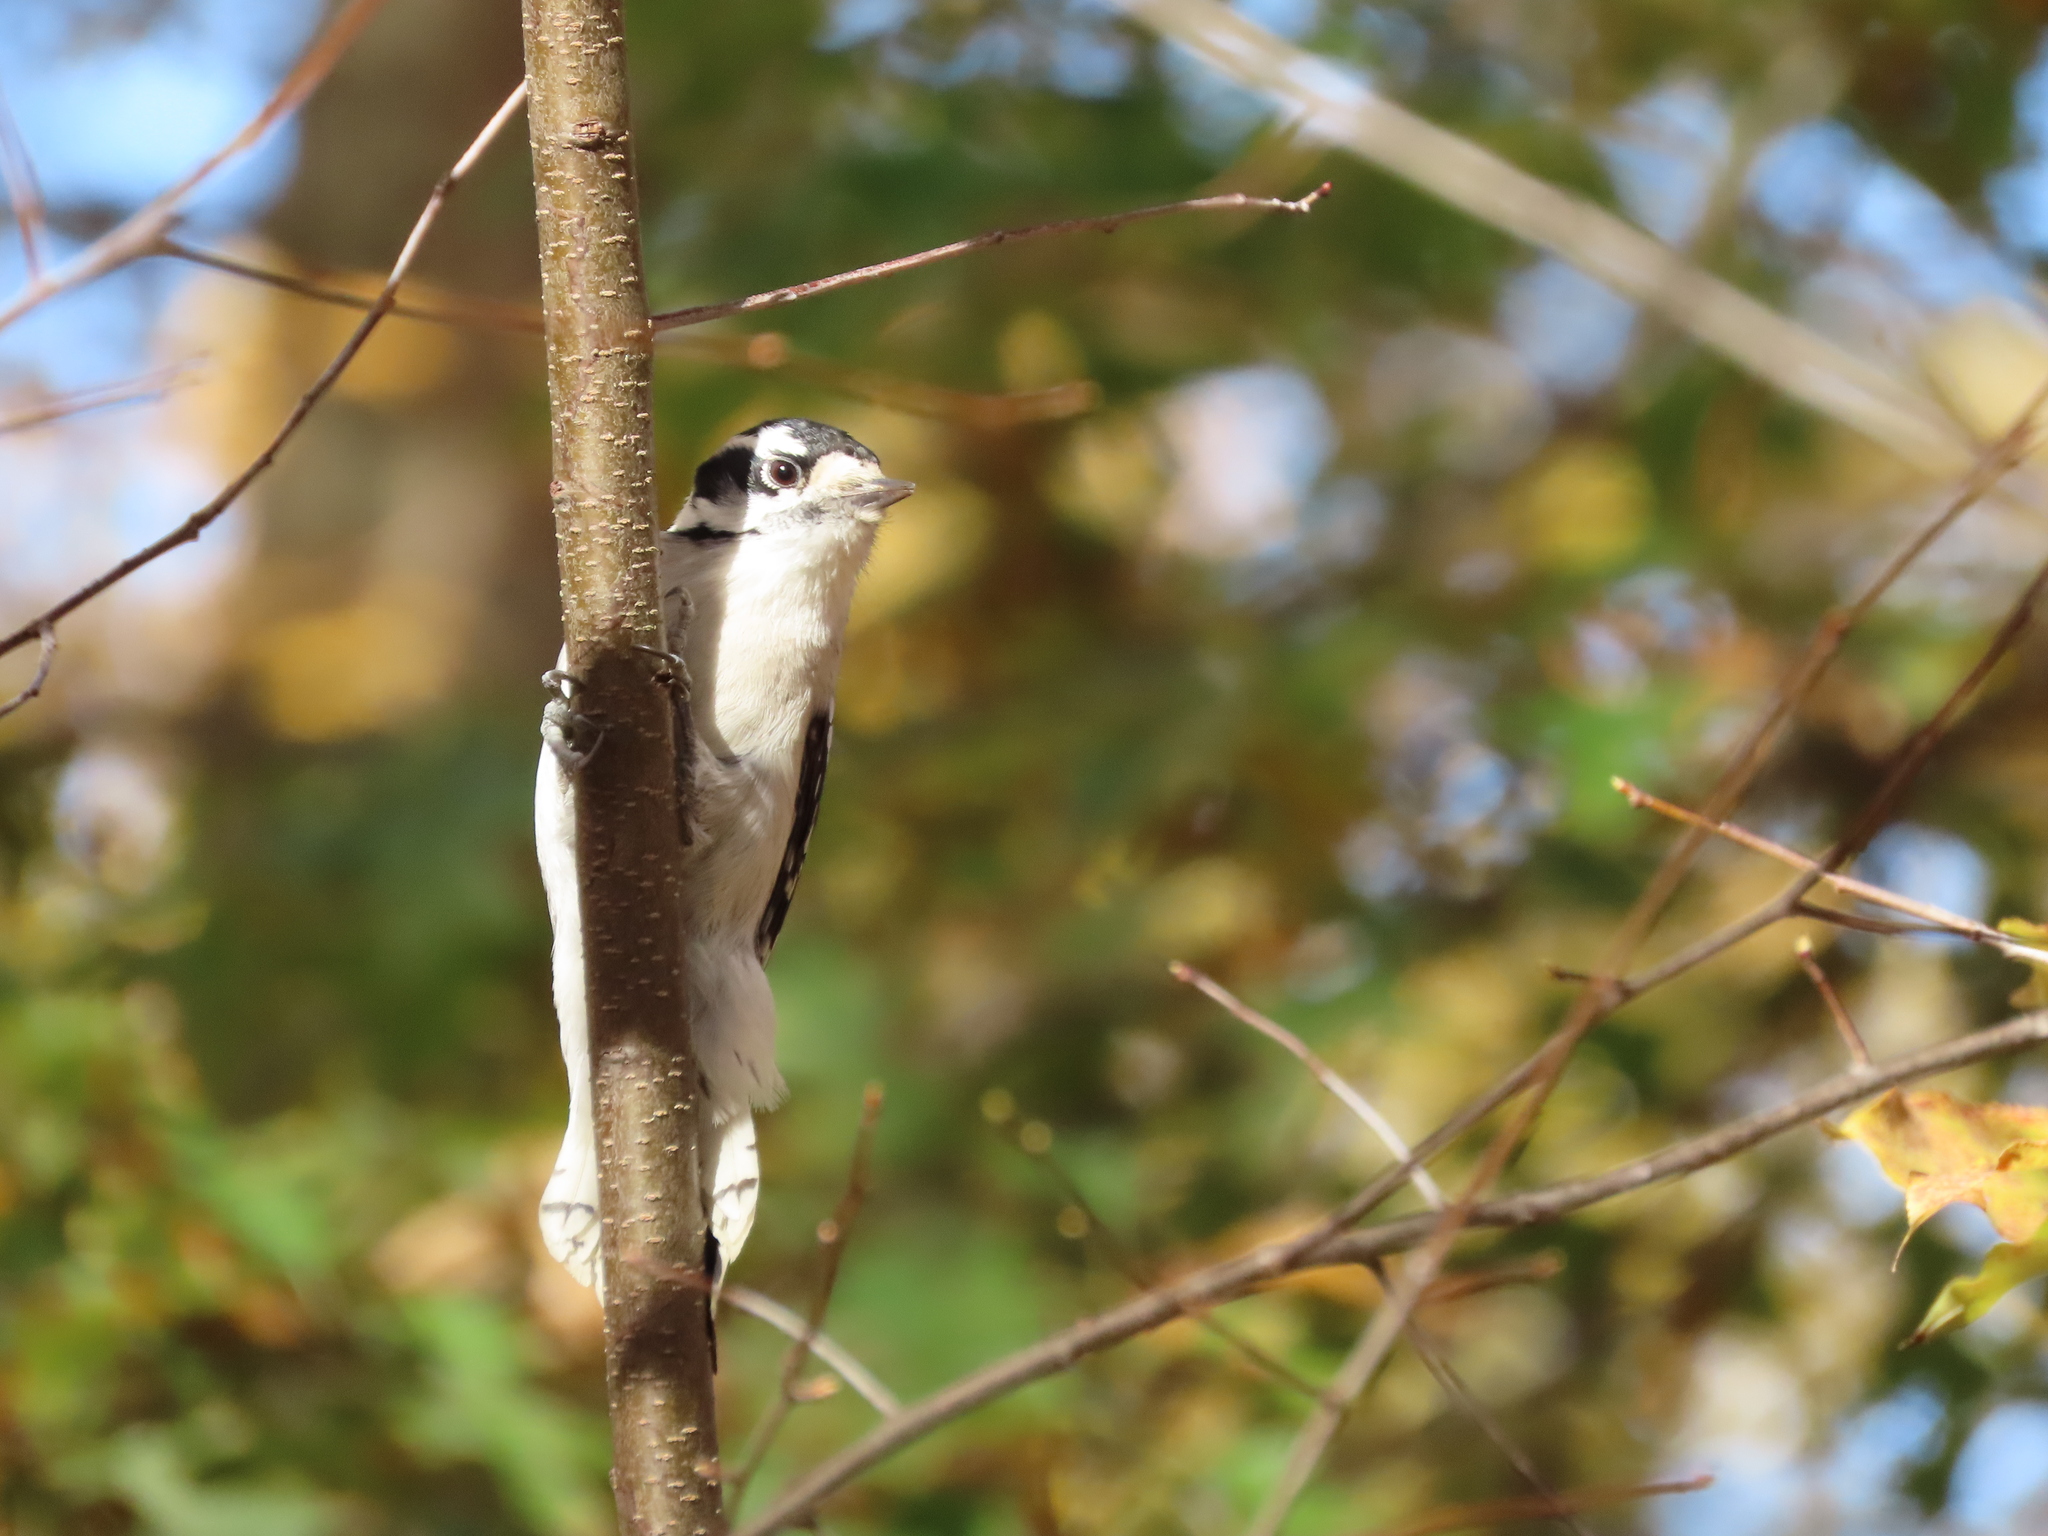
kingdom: Animalia
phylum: Chordata
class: Aves
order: Piciformes
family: Picidae
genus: Dryobates
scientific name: Dryobates pubescens
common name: Downy woodpecker
